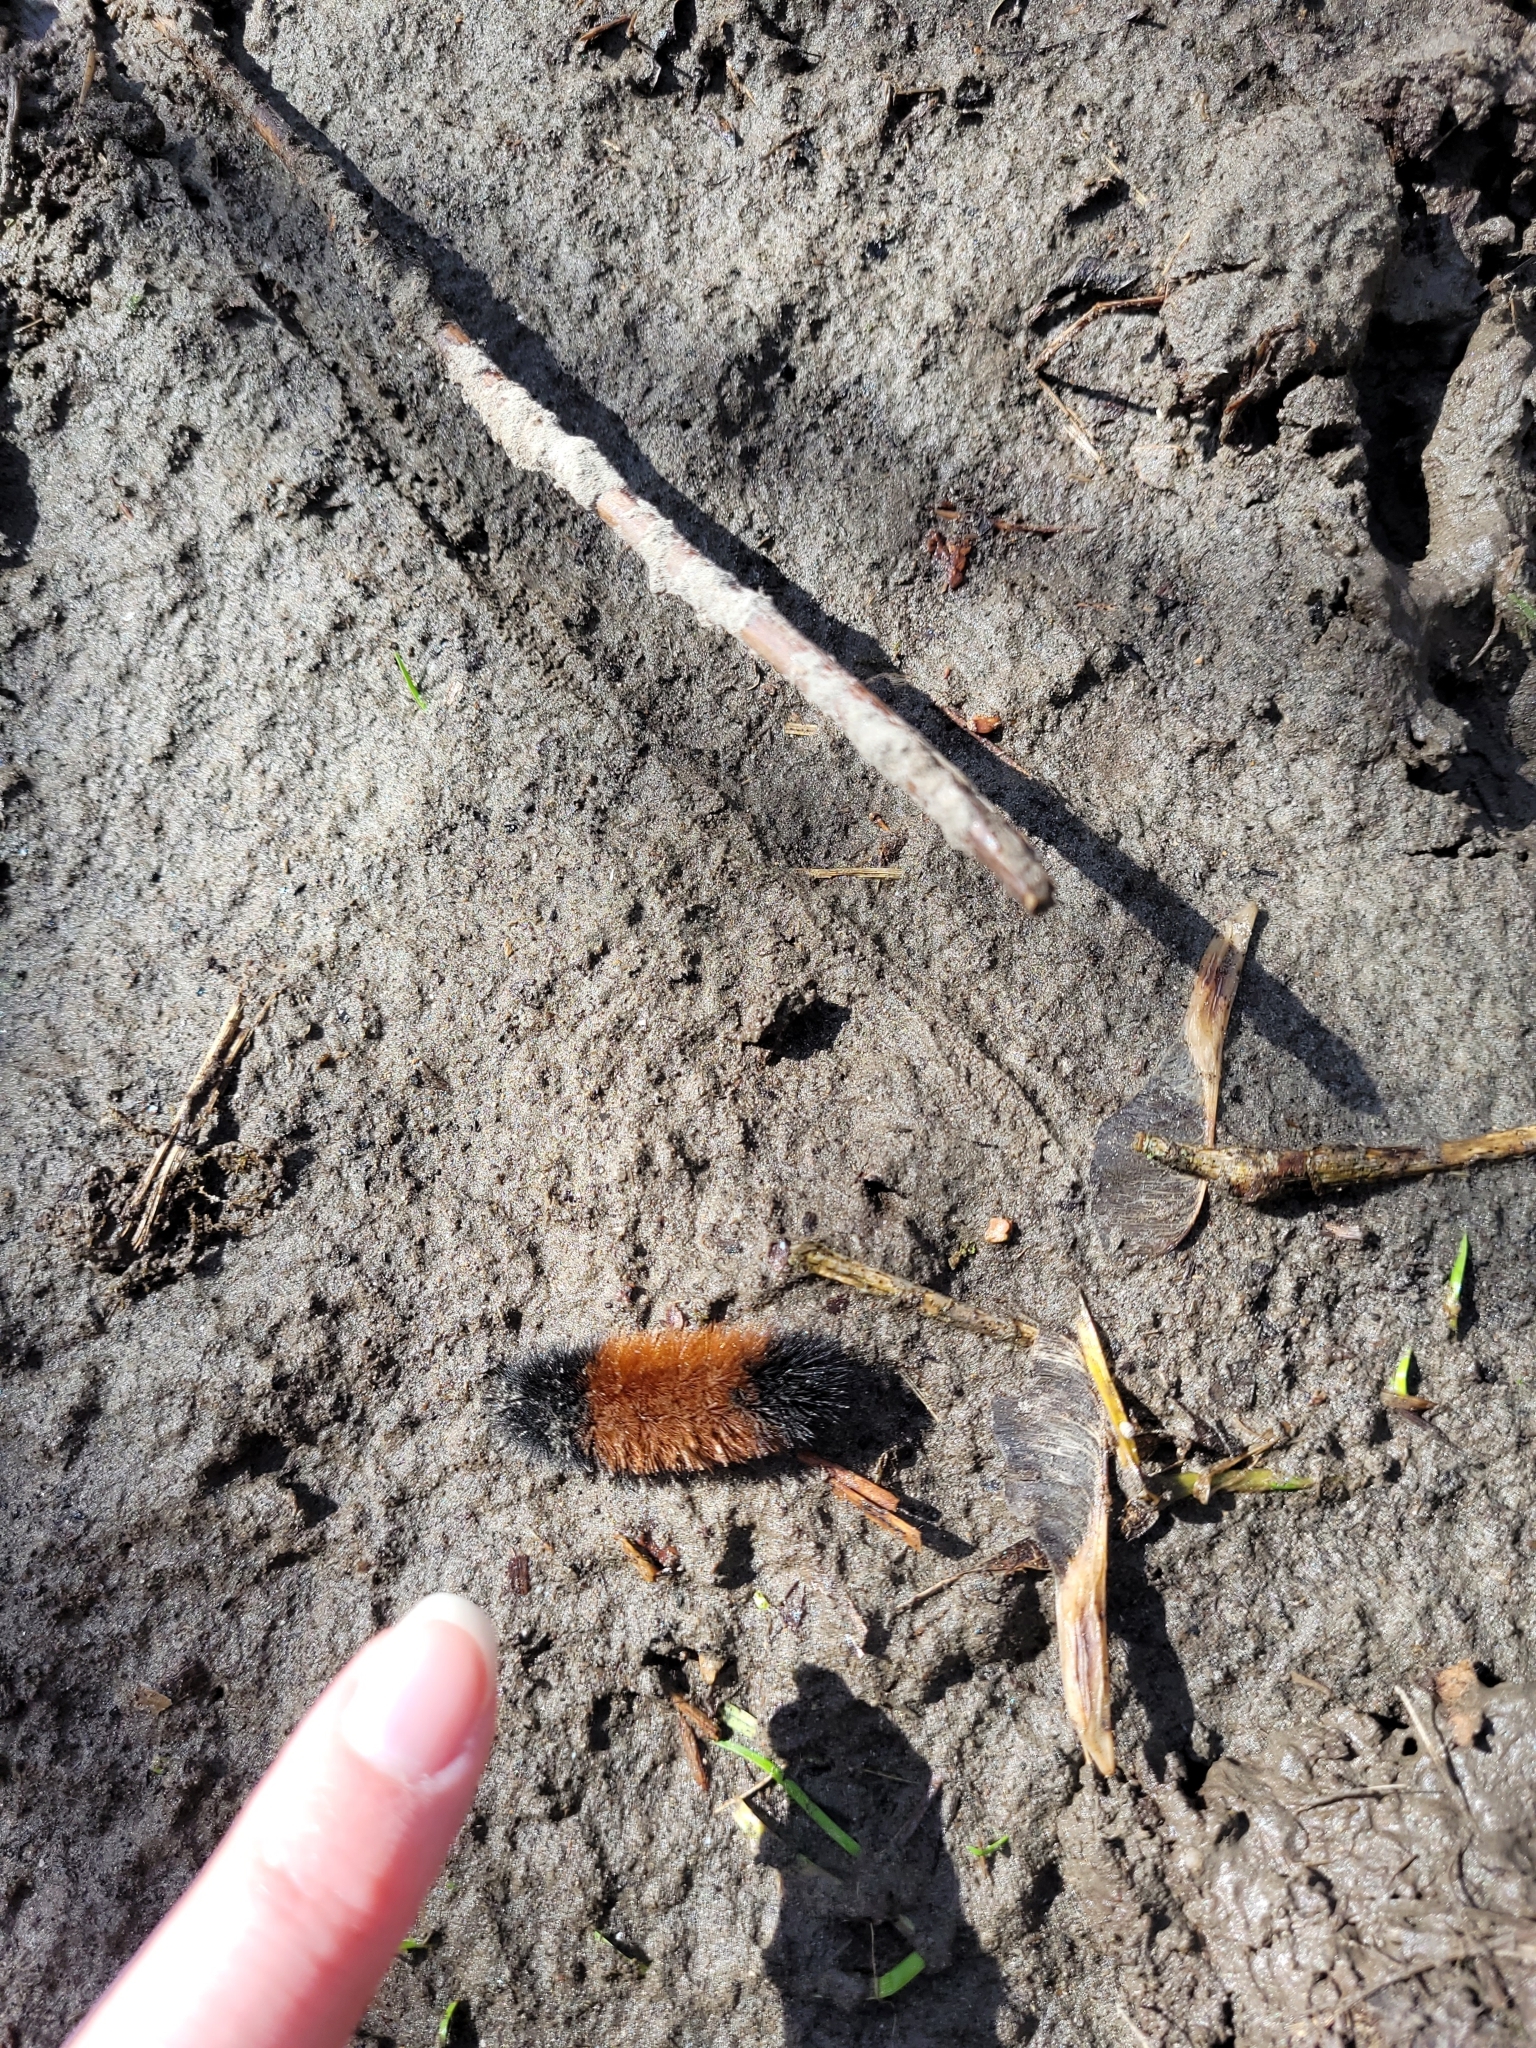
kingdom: Animalia
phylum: Arthropoda
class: Insecta
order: Lepidoptera
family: Erebidae
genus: Pyrrharctia
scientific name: Pyrrharctia isabella
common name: Isabella tiger moth
